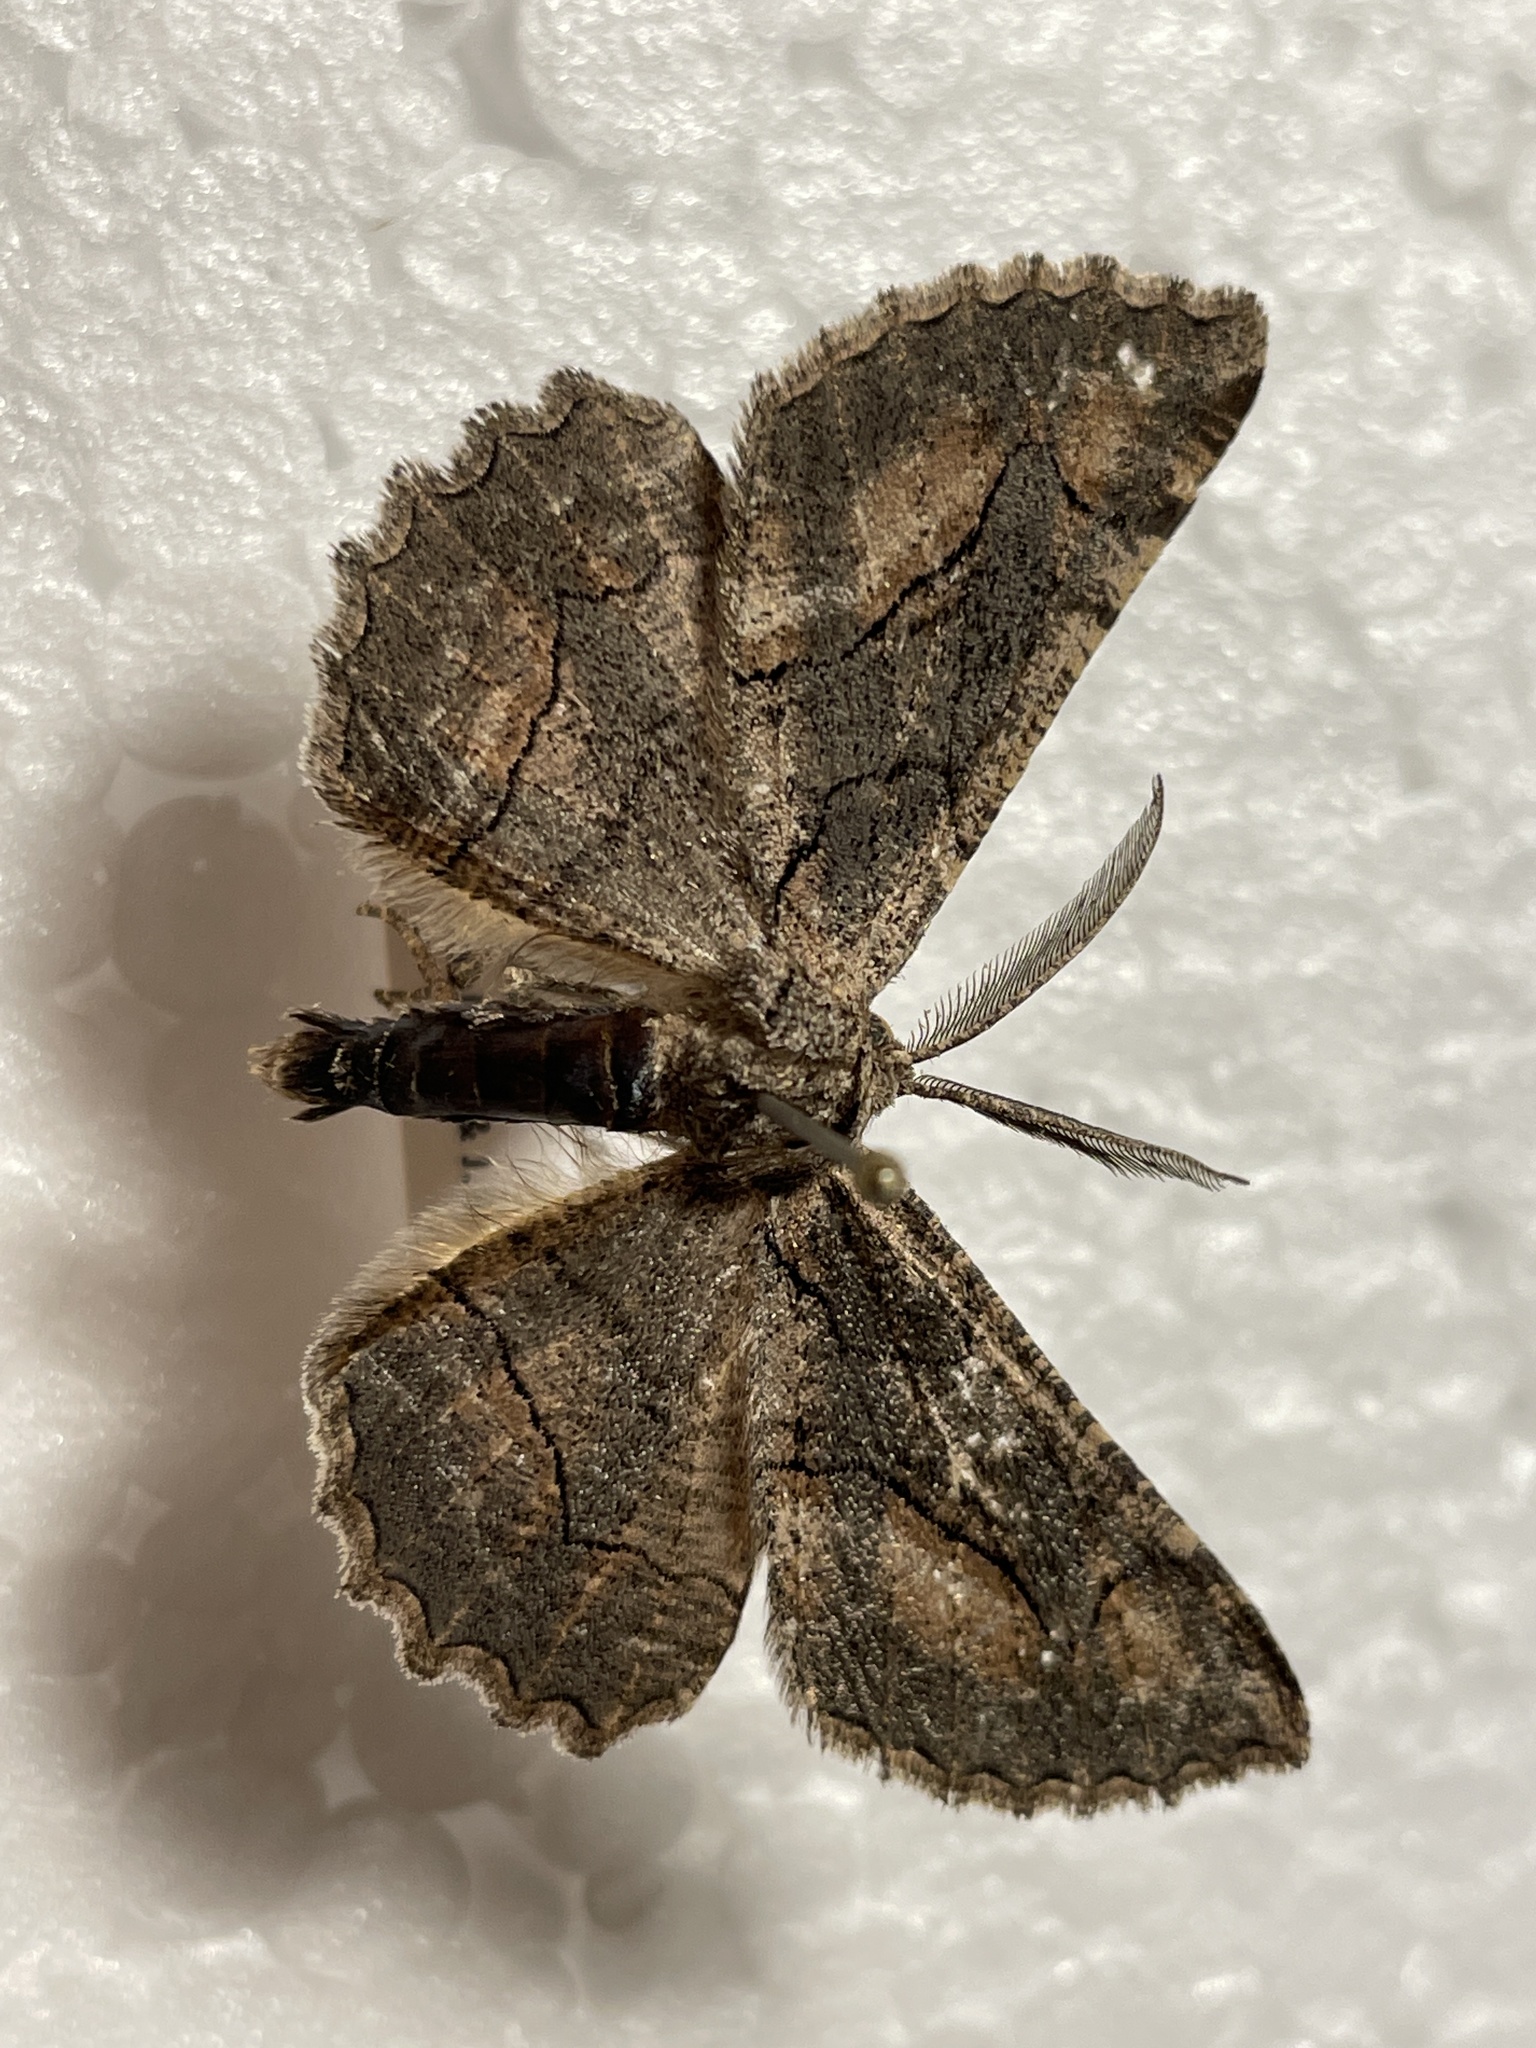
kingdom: Animalia
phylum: Arthropoda
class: Insecta
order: Lepidoptera
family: Geometridae
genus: Nychiodes
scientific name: Nychiodes dalmatina
